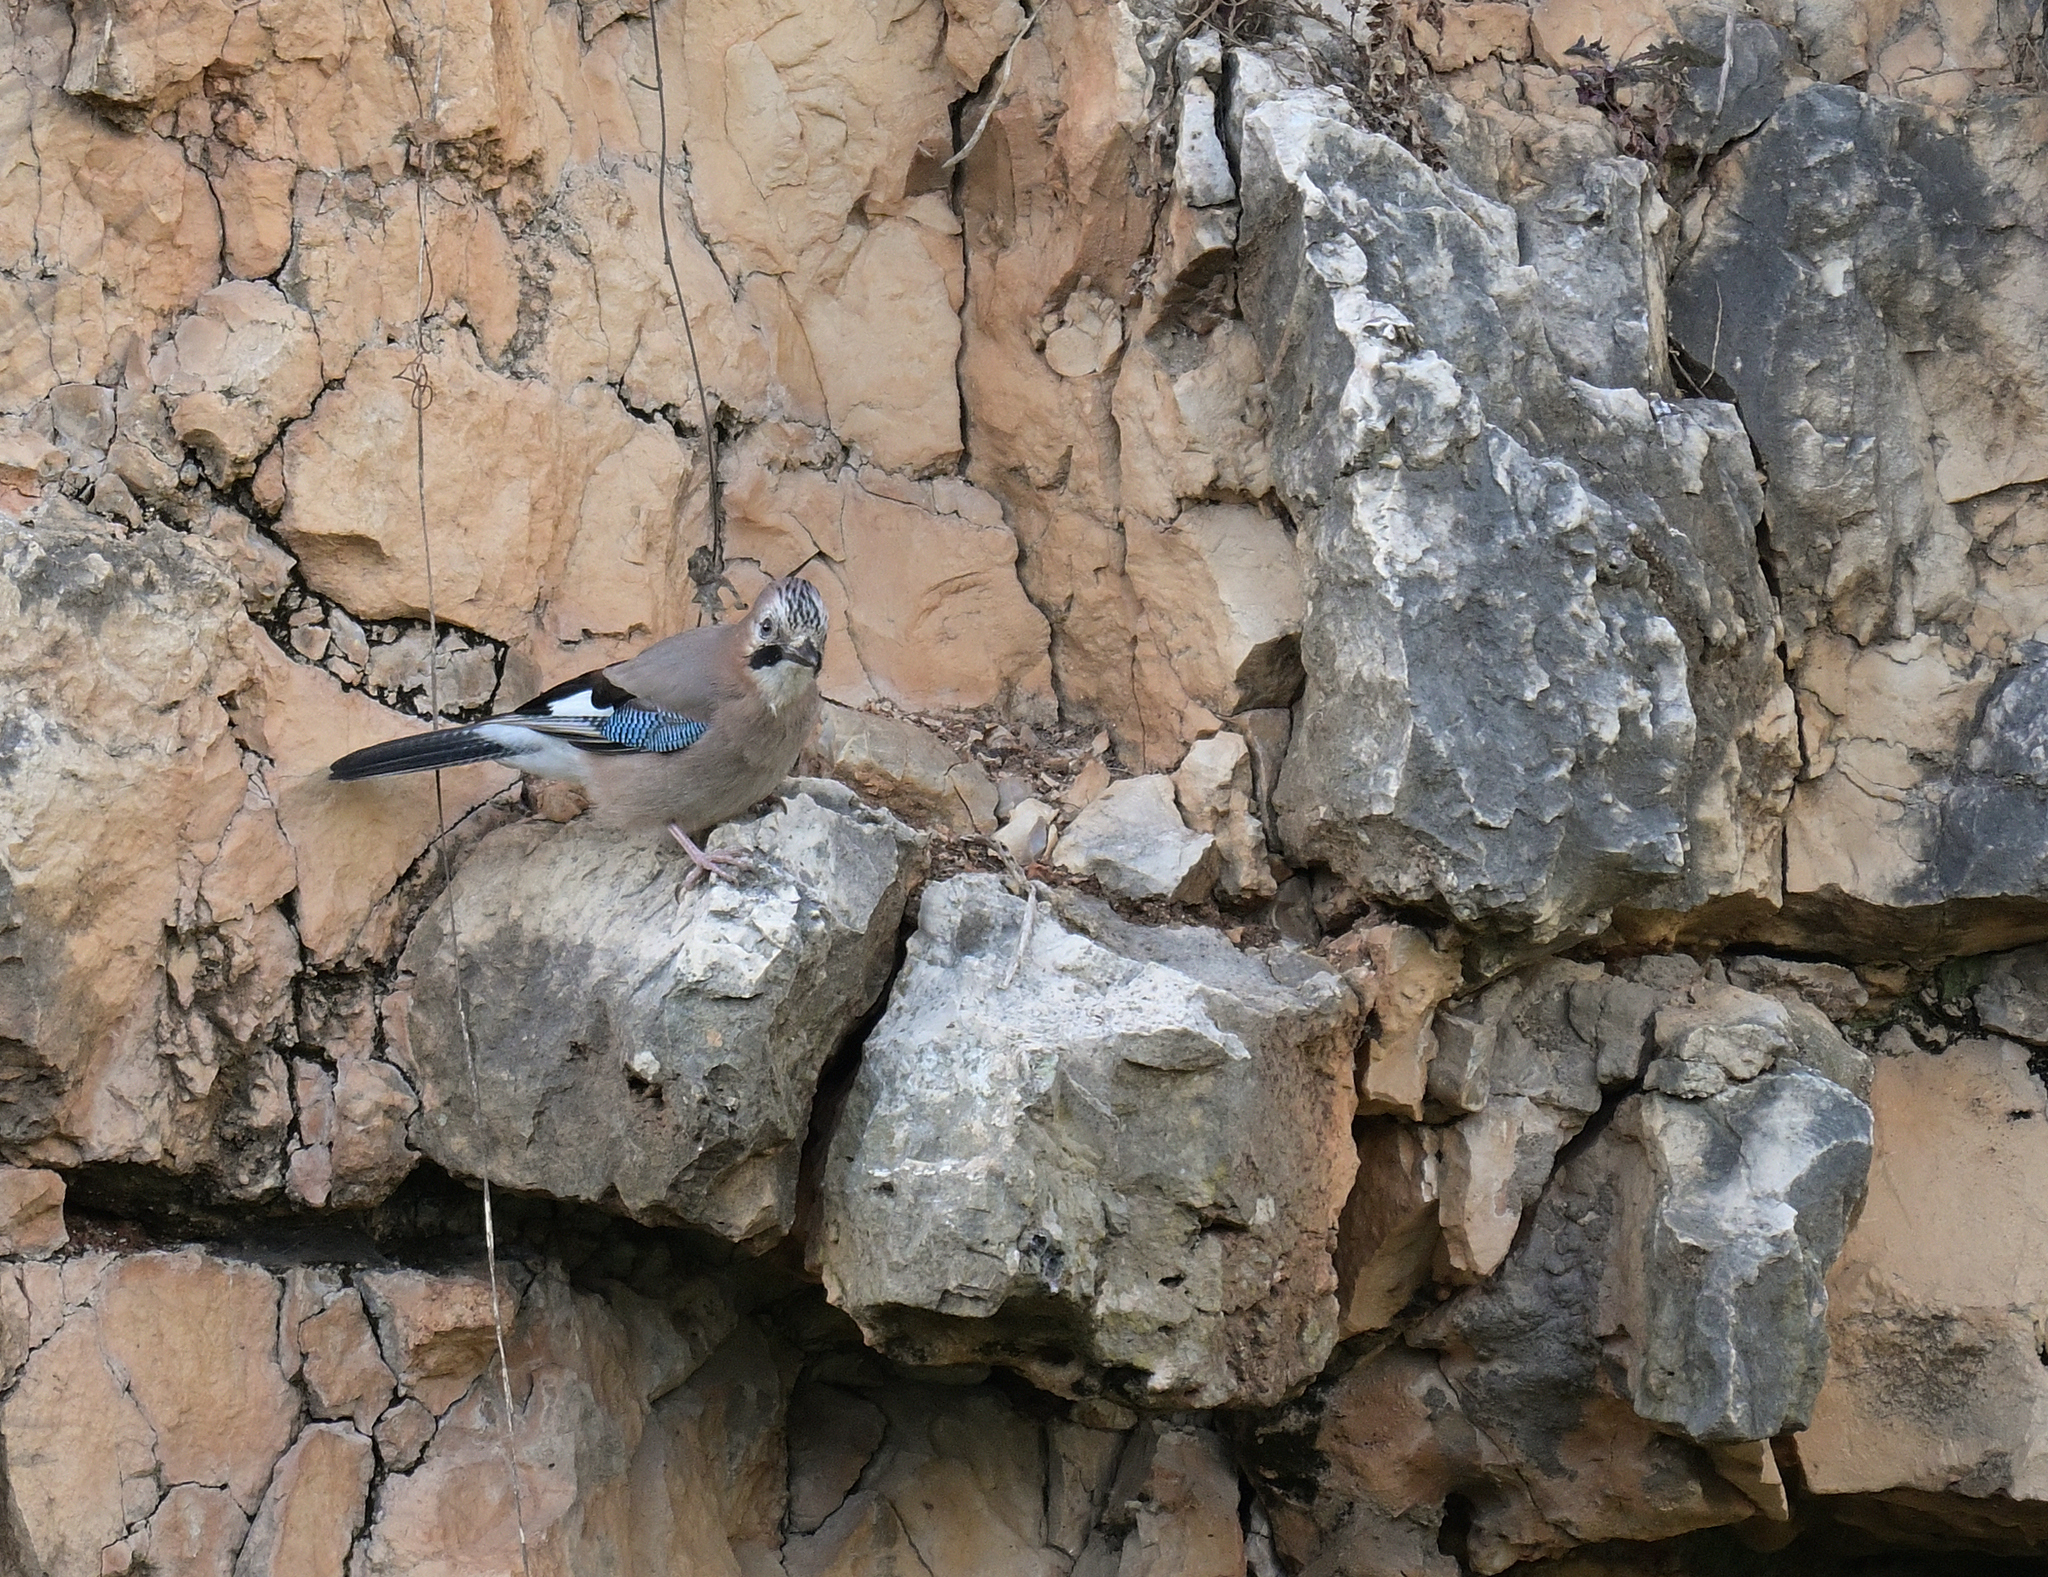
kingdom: Animalia
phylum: Chordata
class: Aves
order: Passeriformes
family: Corvidae
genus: Garrulus
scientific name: Garrulus glandarius
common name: Eurasian jay
